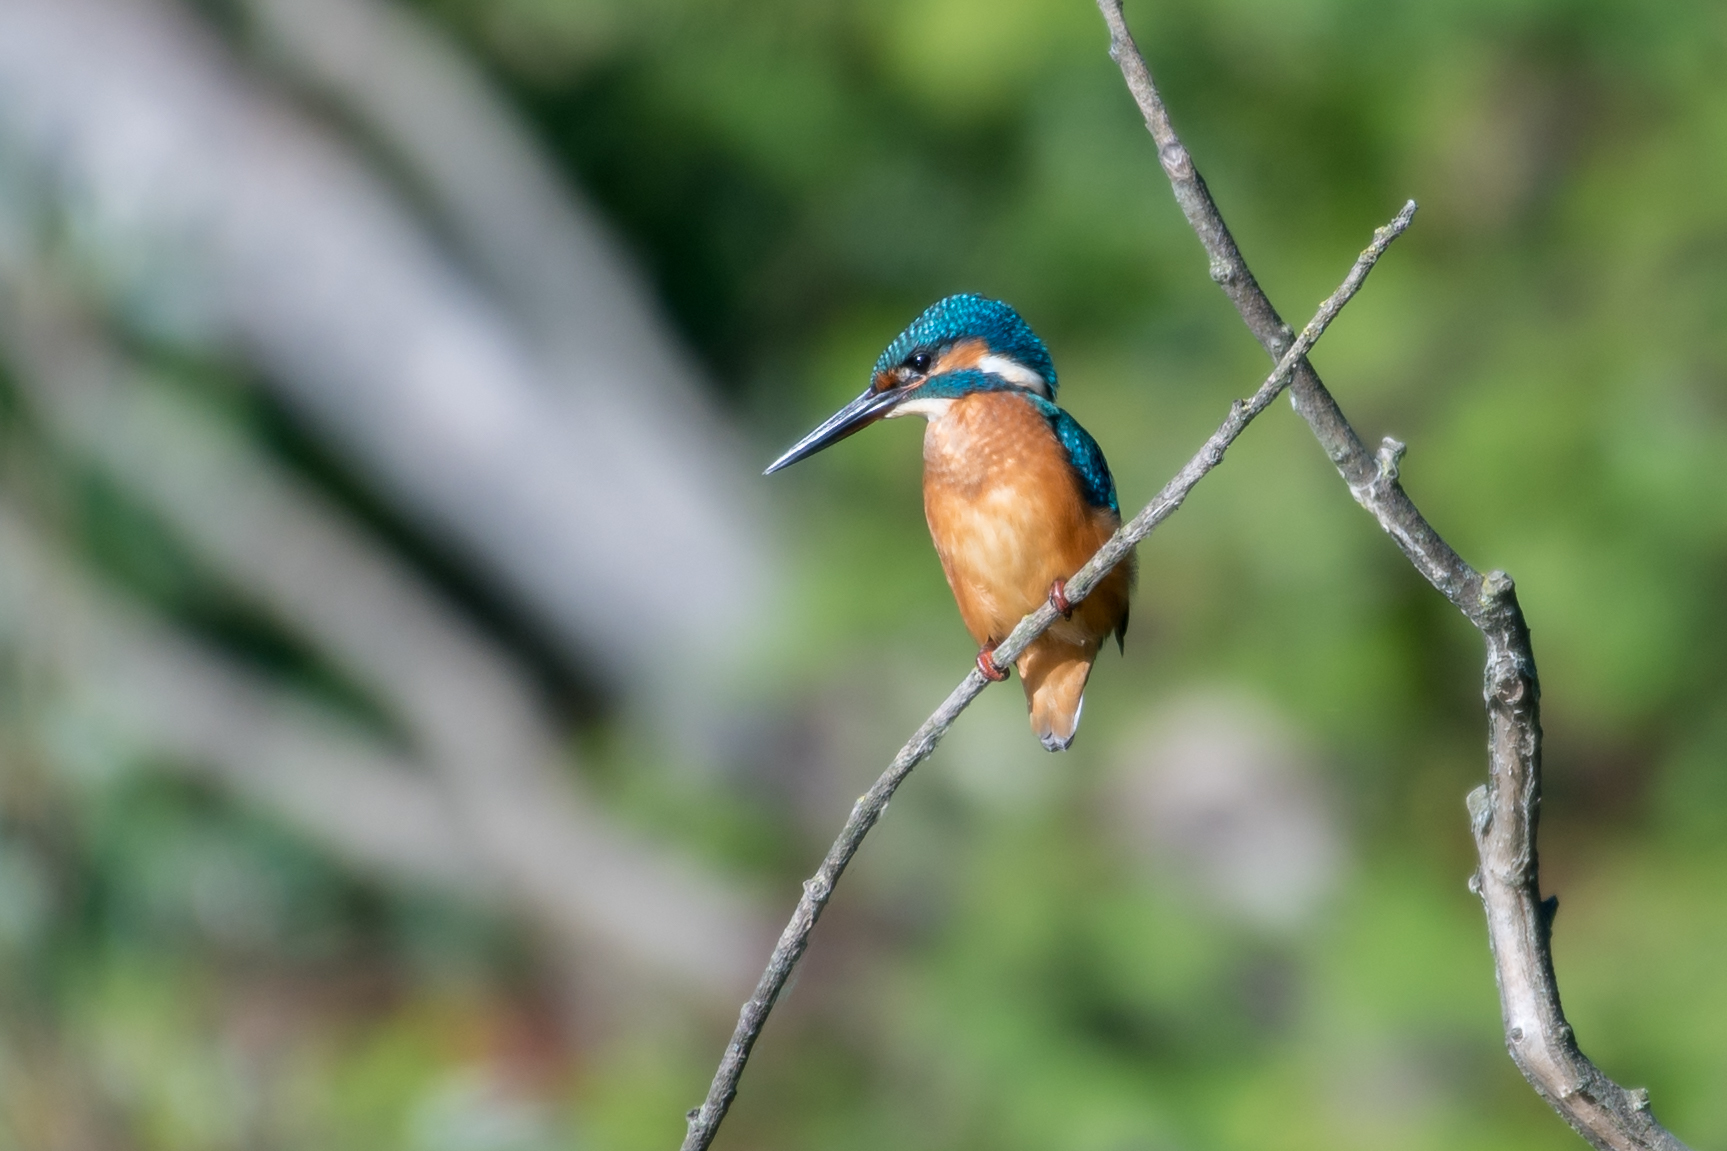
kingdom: Animalia
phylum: Chordata
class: Aves
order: Coraciiformes
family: Alcedinidae
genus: Alcedo
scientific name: Alcedo atthis
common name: Common kingfisher
